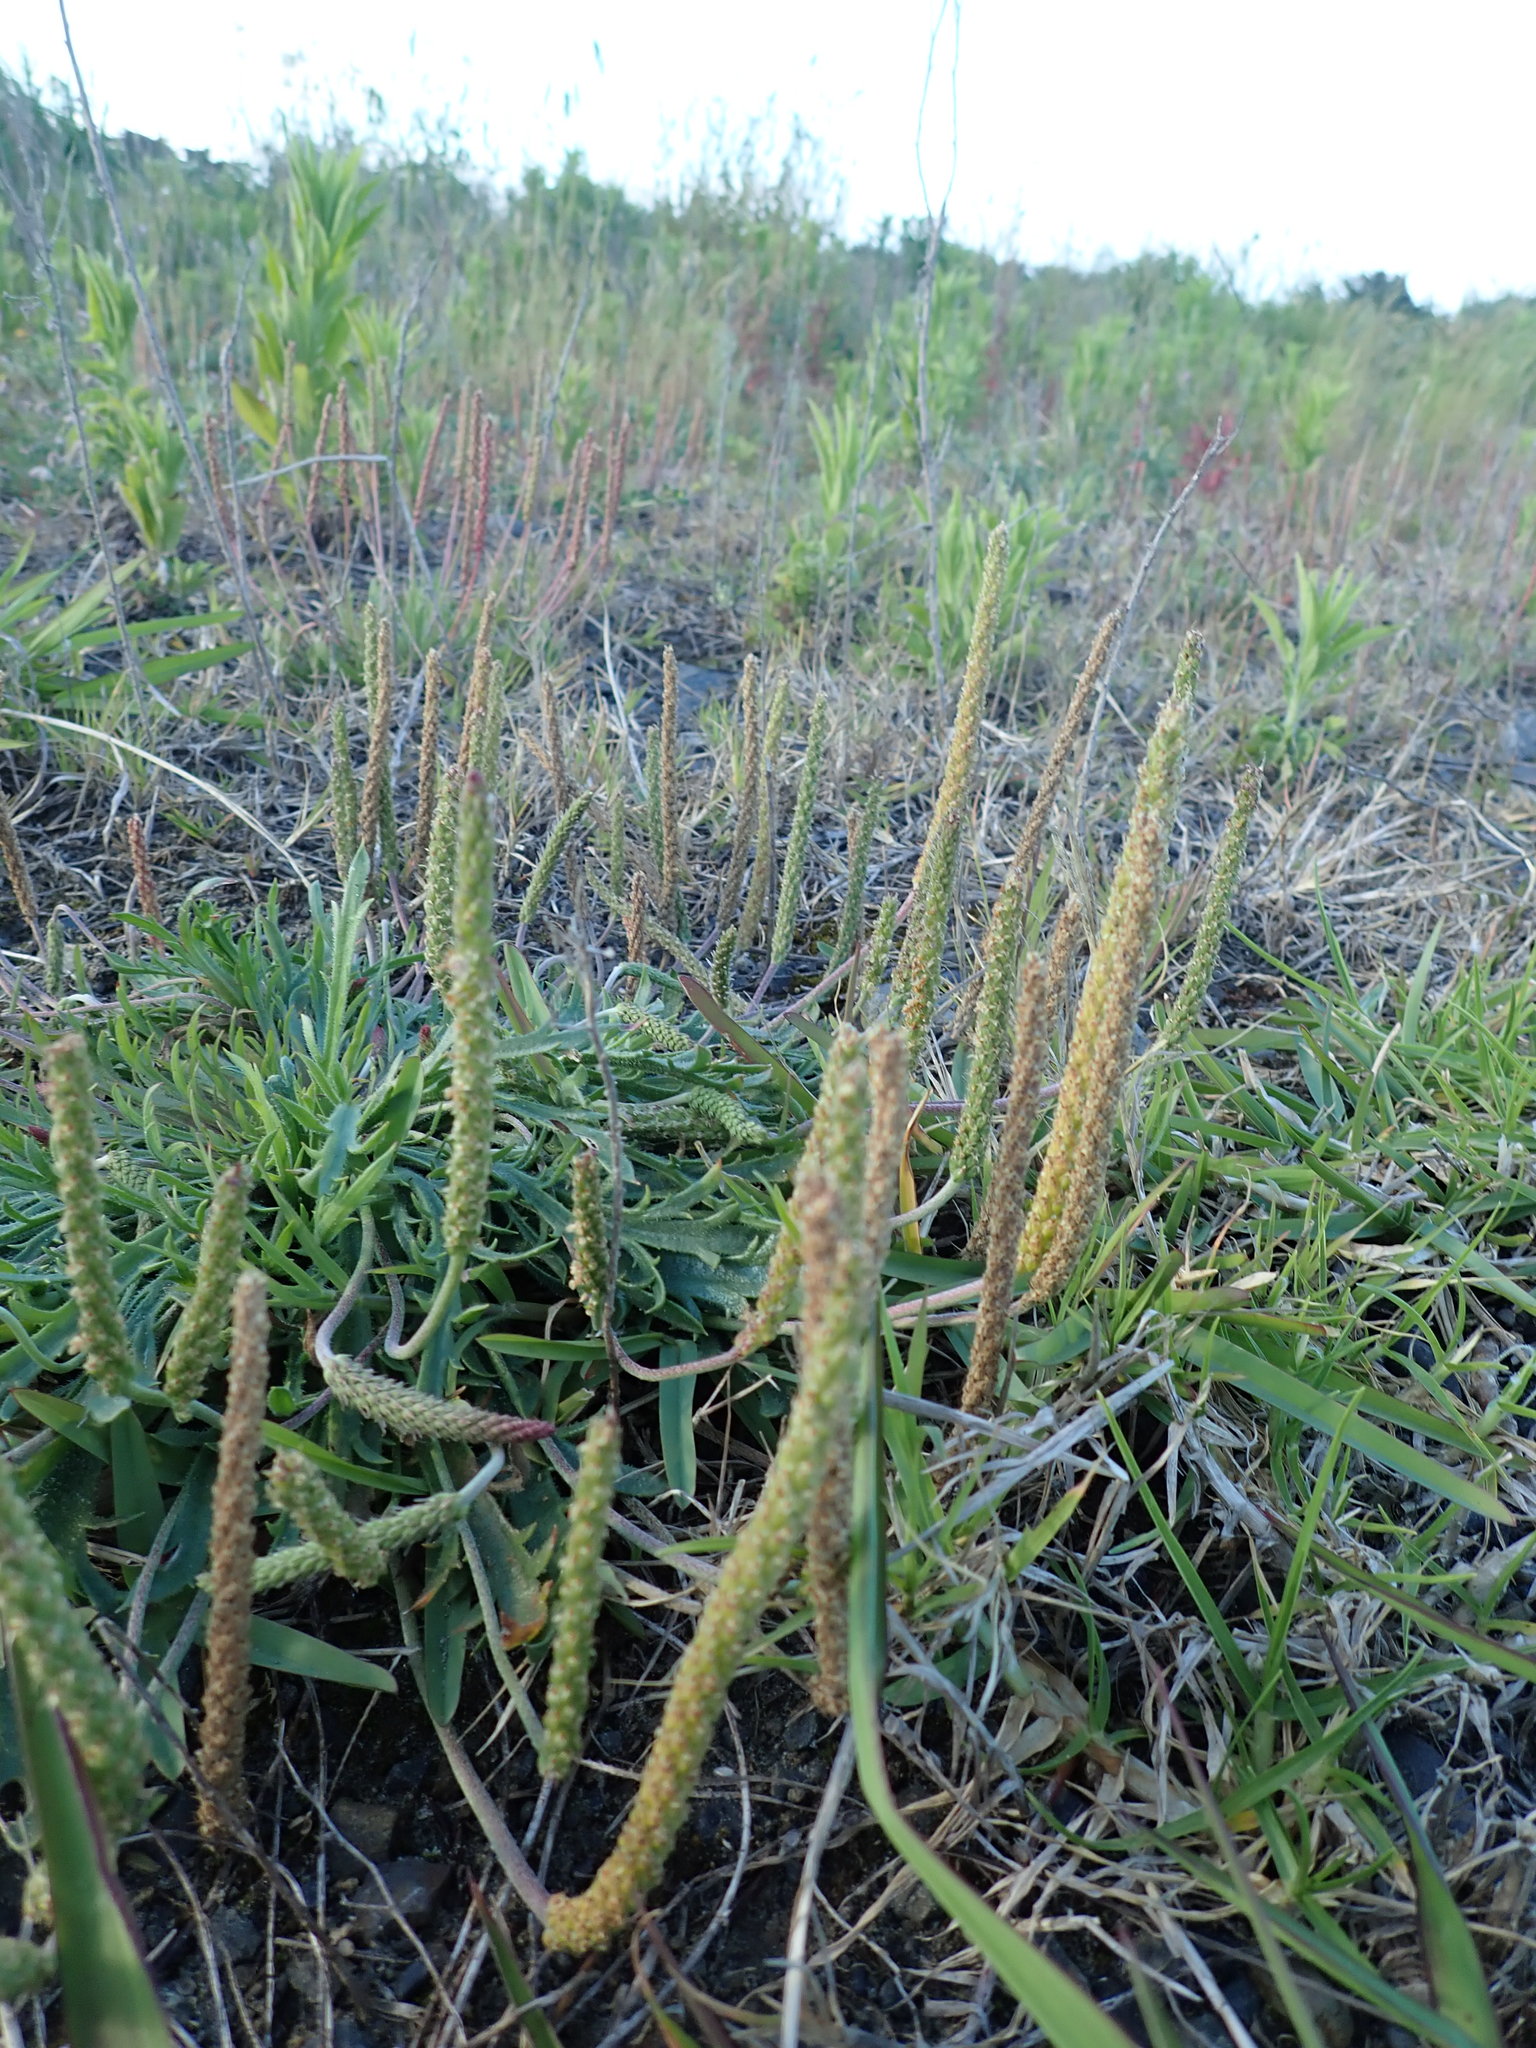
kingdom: Plantae
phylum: Tracheophyta
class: Magnoliopsida
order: Lamiales
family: Plantaginaceae
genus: Plantago
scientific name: Plantago coronopus
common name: Buck's-horn plantain
